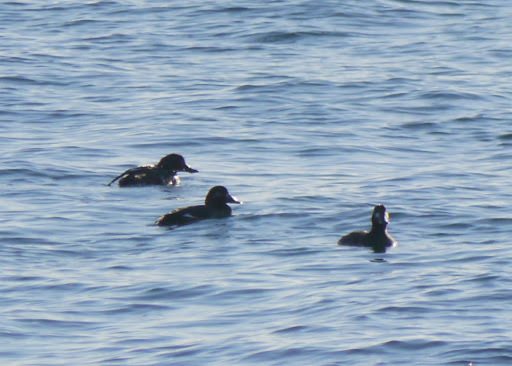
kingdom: Animalia
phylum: Chordata
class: Aves
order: Anseriformes
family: Anatidae
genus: Melanitta
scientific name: Melanitta deglandi
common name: White-winged scoter
